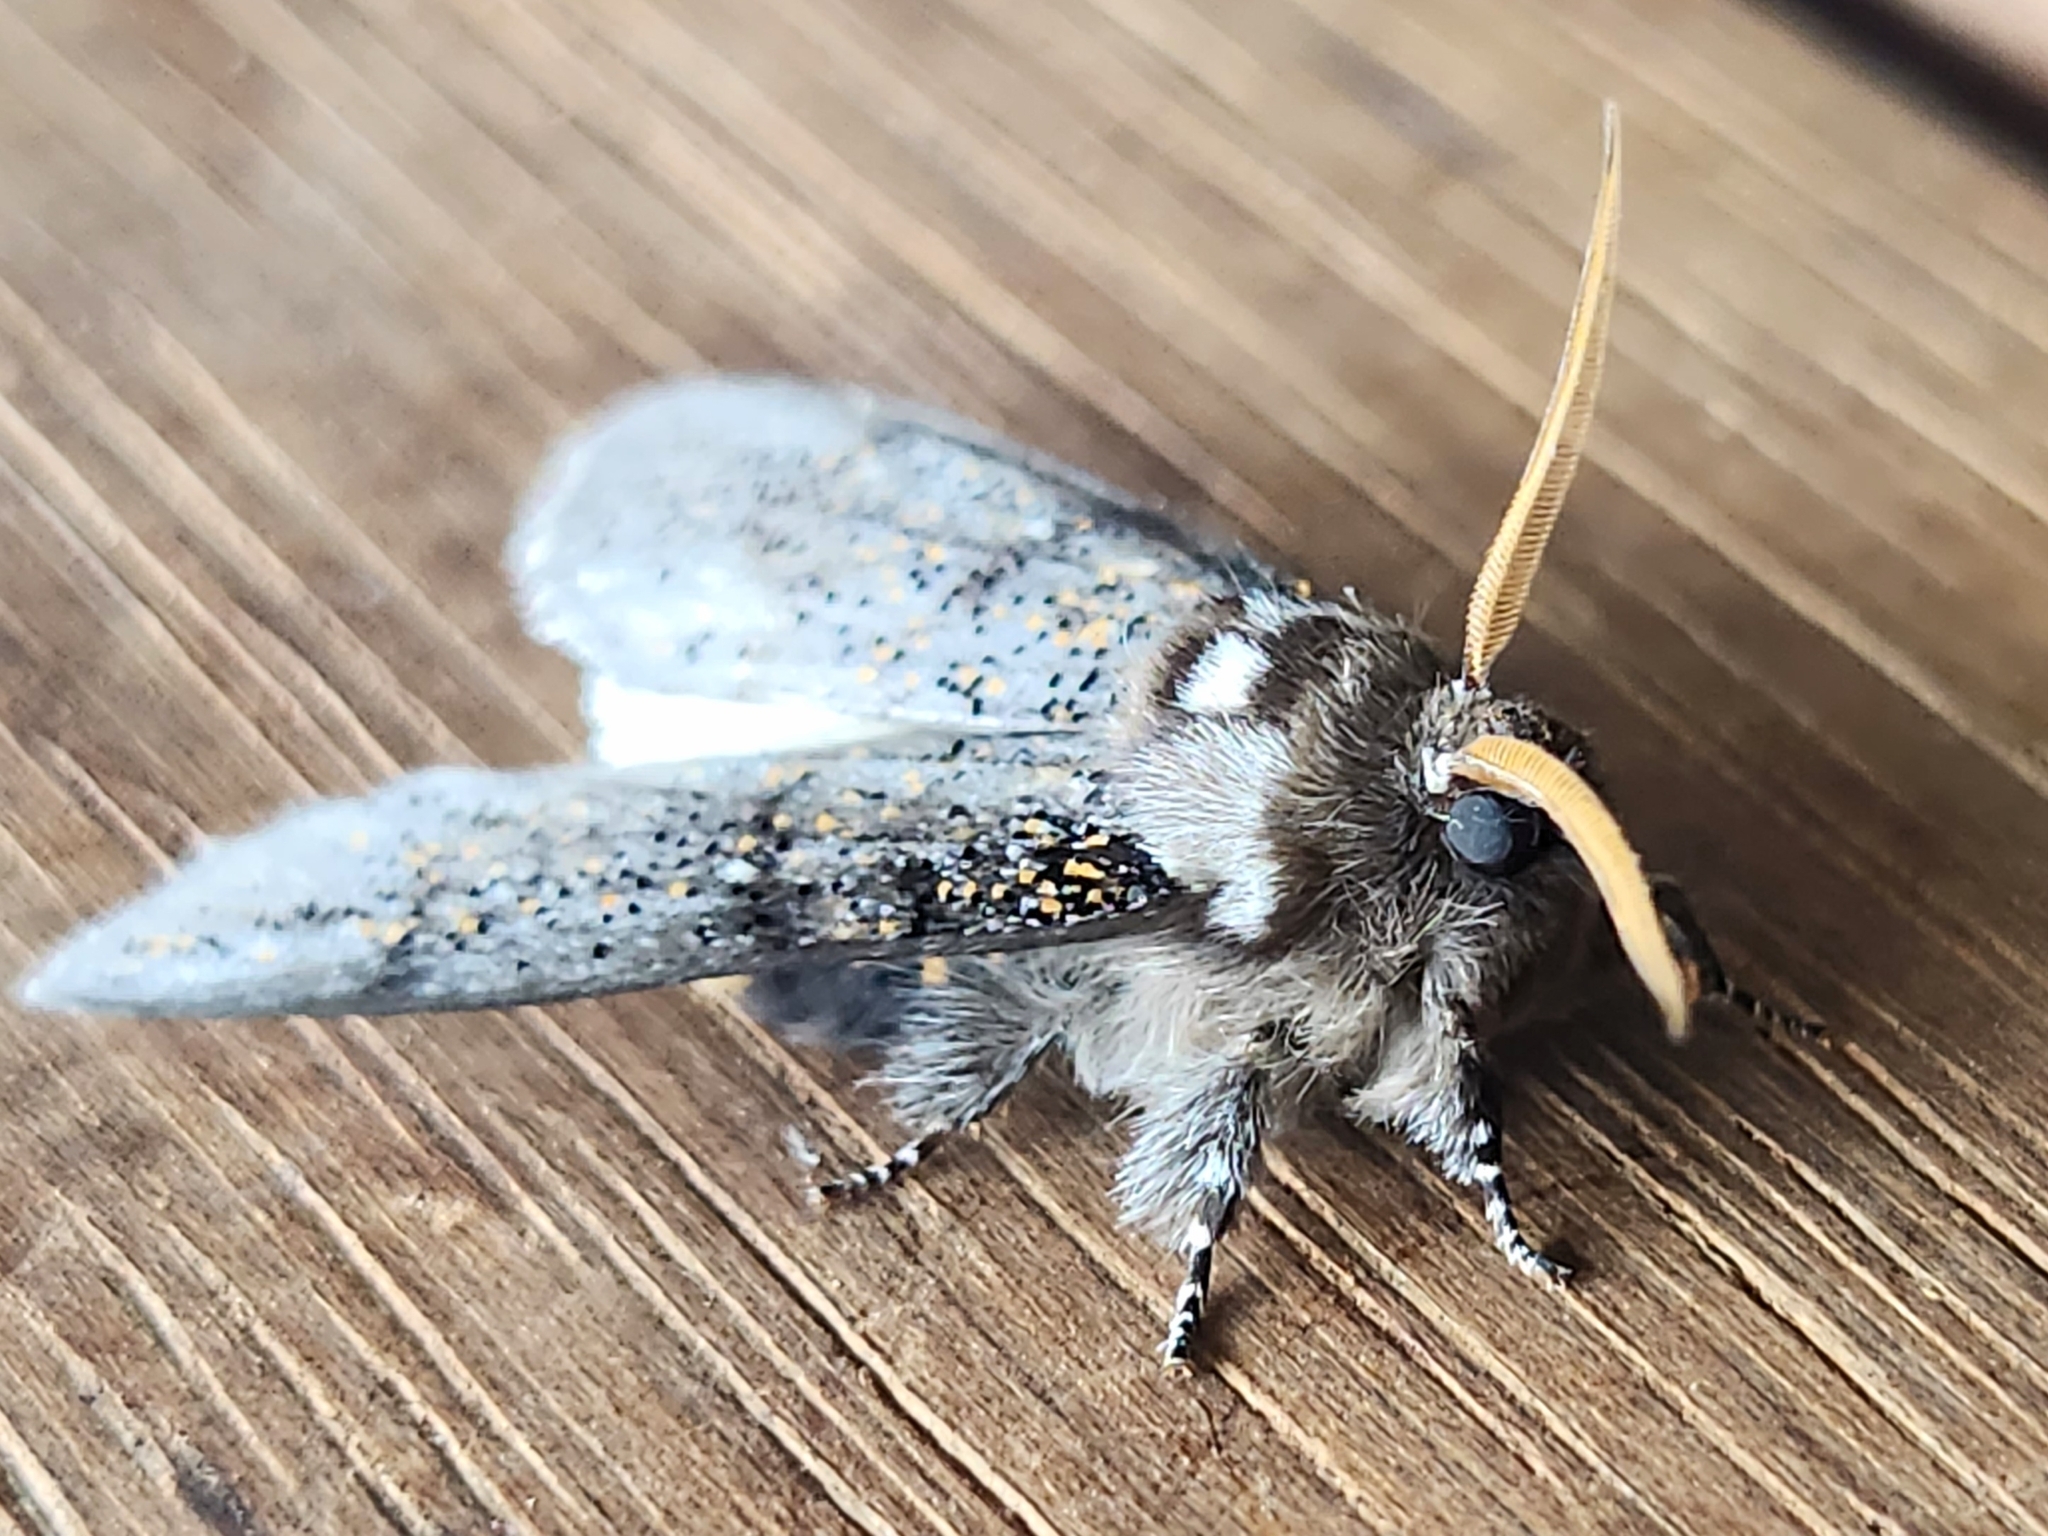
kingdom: Animalia
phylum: Arthropoda
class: Insecta
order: Lepidoptera
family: Oenosandridae
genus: Oenosandra
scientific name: Oenosandra boisduvalii
